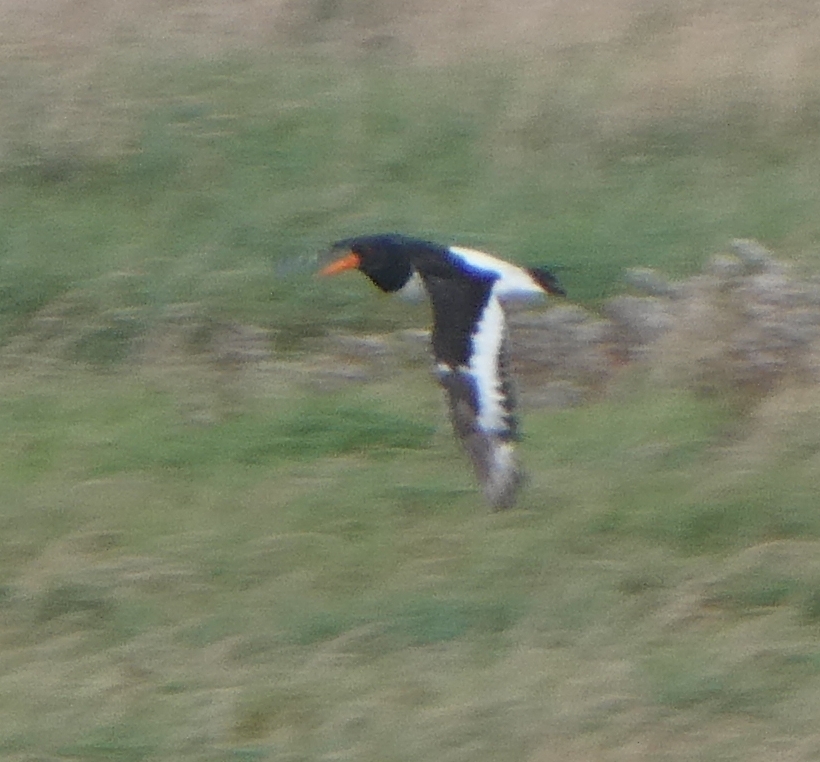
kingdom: Animalia
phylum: Chordata
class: Aves
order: Charadriiformes
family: Haematopodidae
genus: Haematopus
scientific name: Haematopus ostralegus
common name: Eurasian oystercatcher
